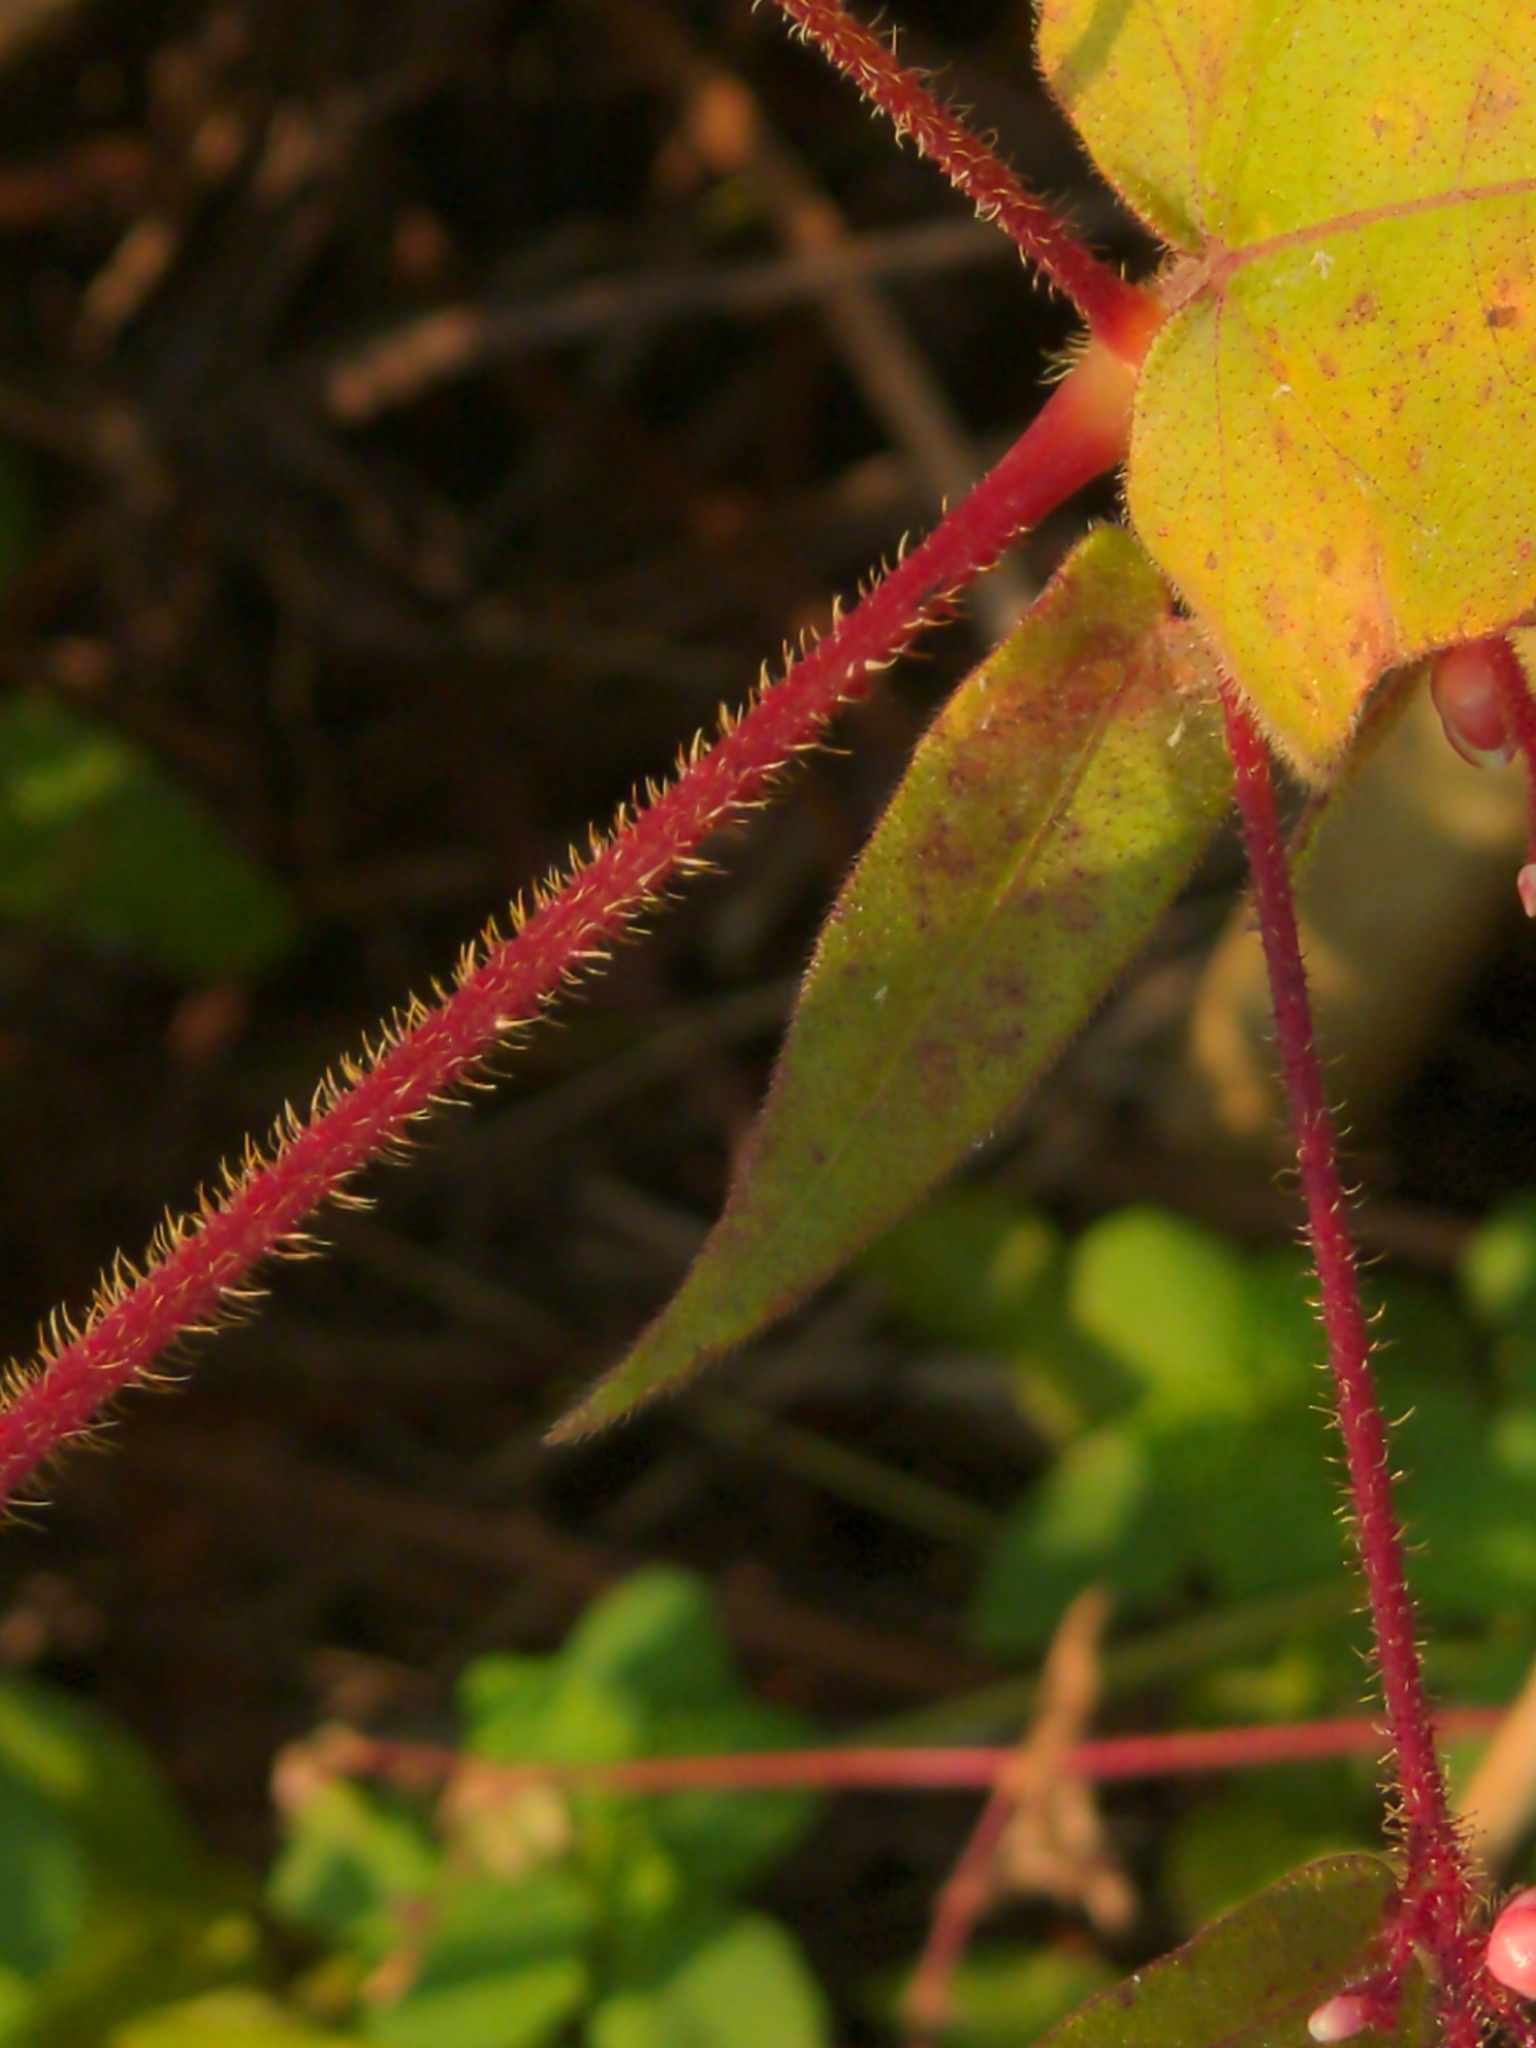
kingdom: Plantae
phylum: Tracheophyta
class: Magnoliopsida
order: Caryophyllales
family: Polygonaceae
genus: Persicaria
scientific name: Persicaria arifolia
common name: Halberd-leaved tear-thumb
